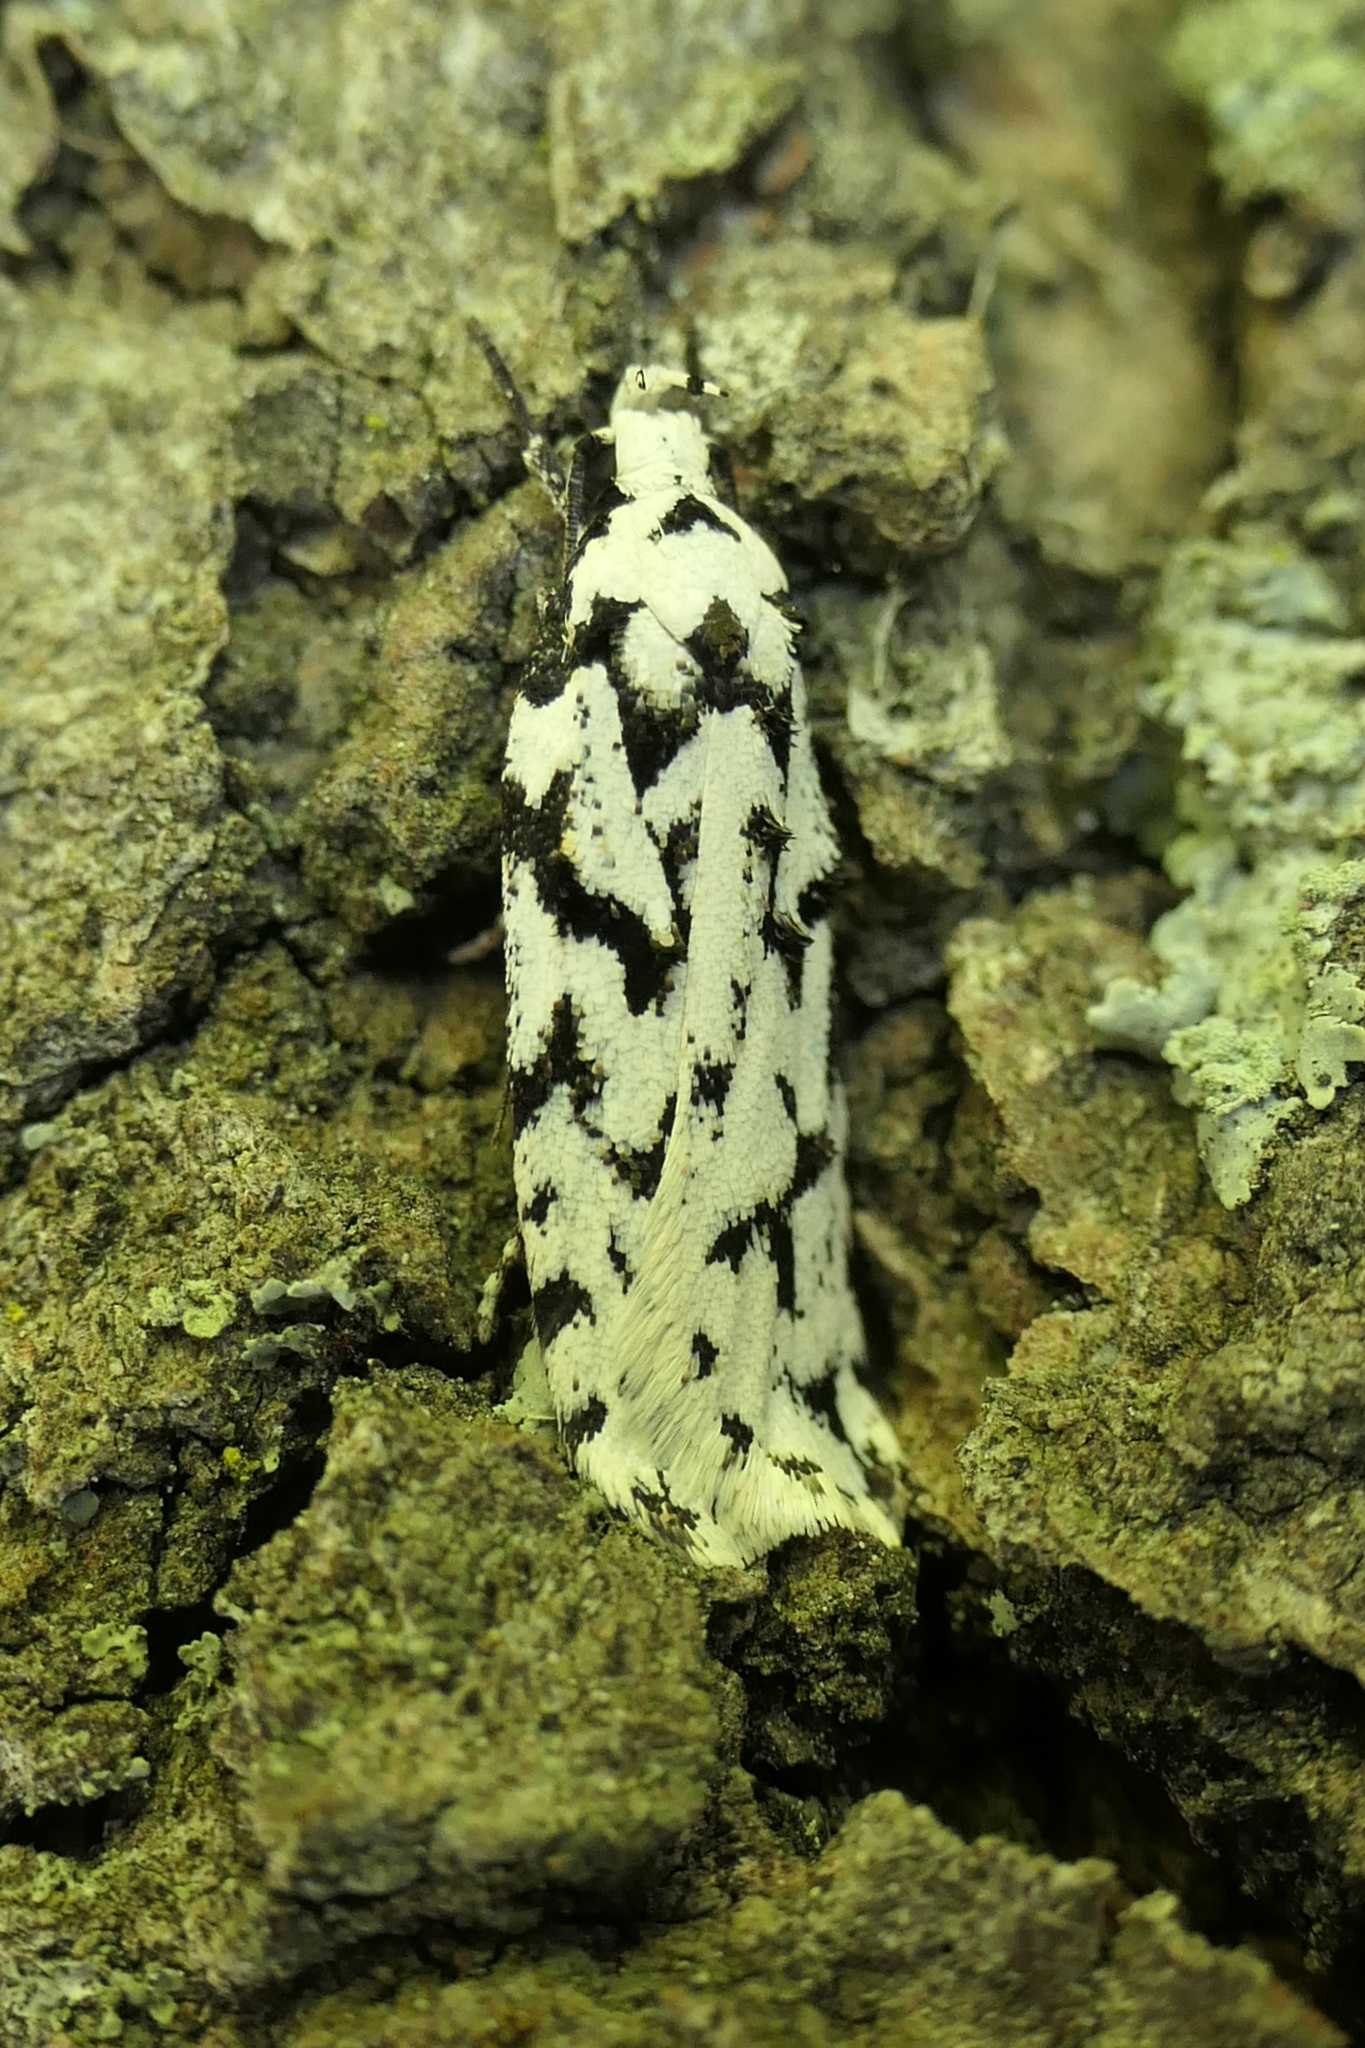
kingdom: Animalia
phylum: Arthropoda
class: Insecta
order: Lepidoptera
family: Oecophoridae
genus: Izatha
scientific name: Izatha katadiktya
